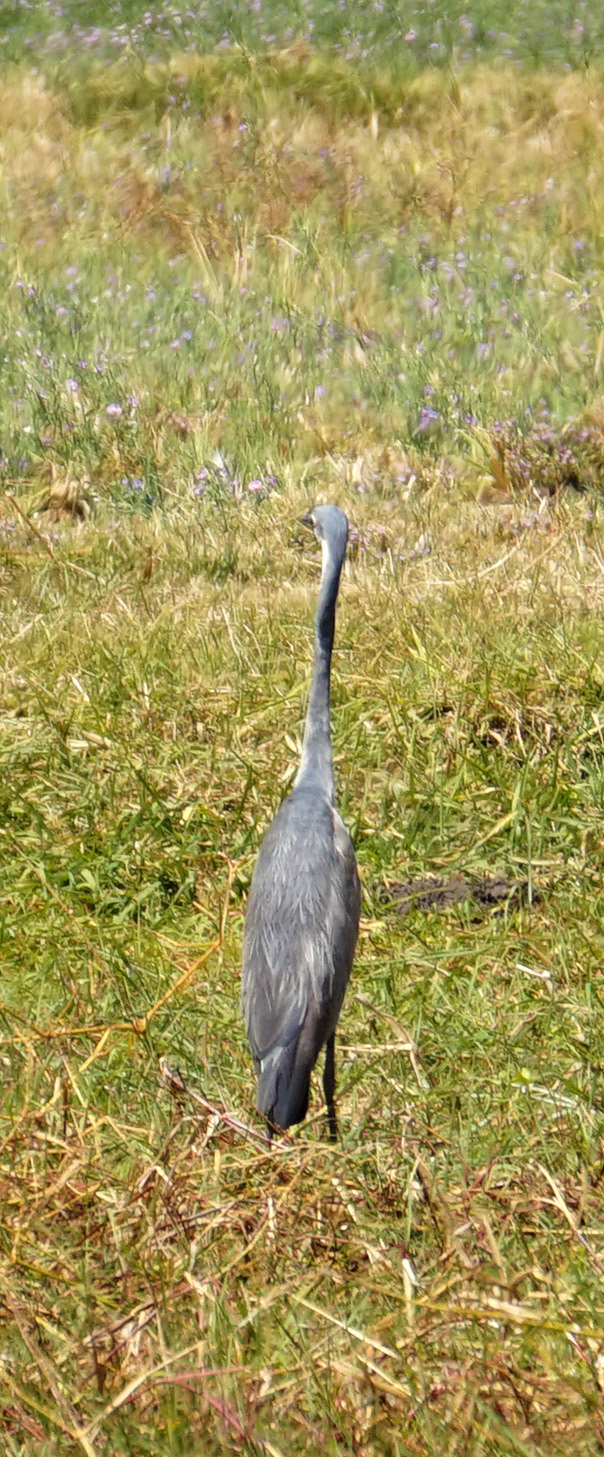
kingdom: Animalia
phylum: Chordata
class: Aves
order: Pelecaniformes
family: Ardeidae
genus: Ardea
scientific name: Ardea melanocephala
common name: Black-headed heron
